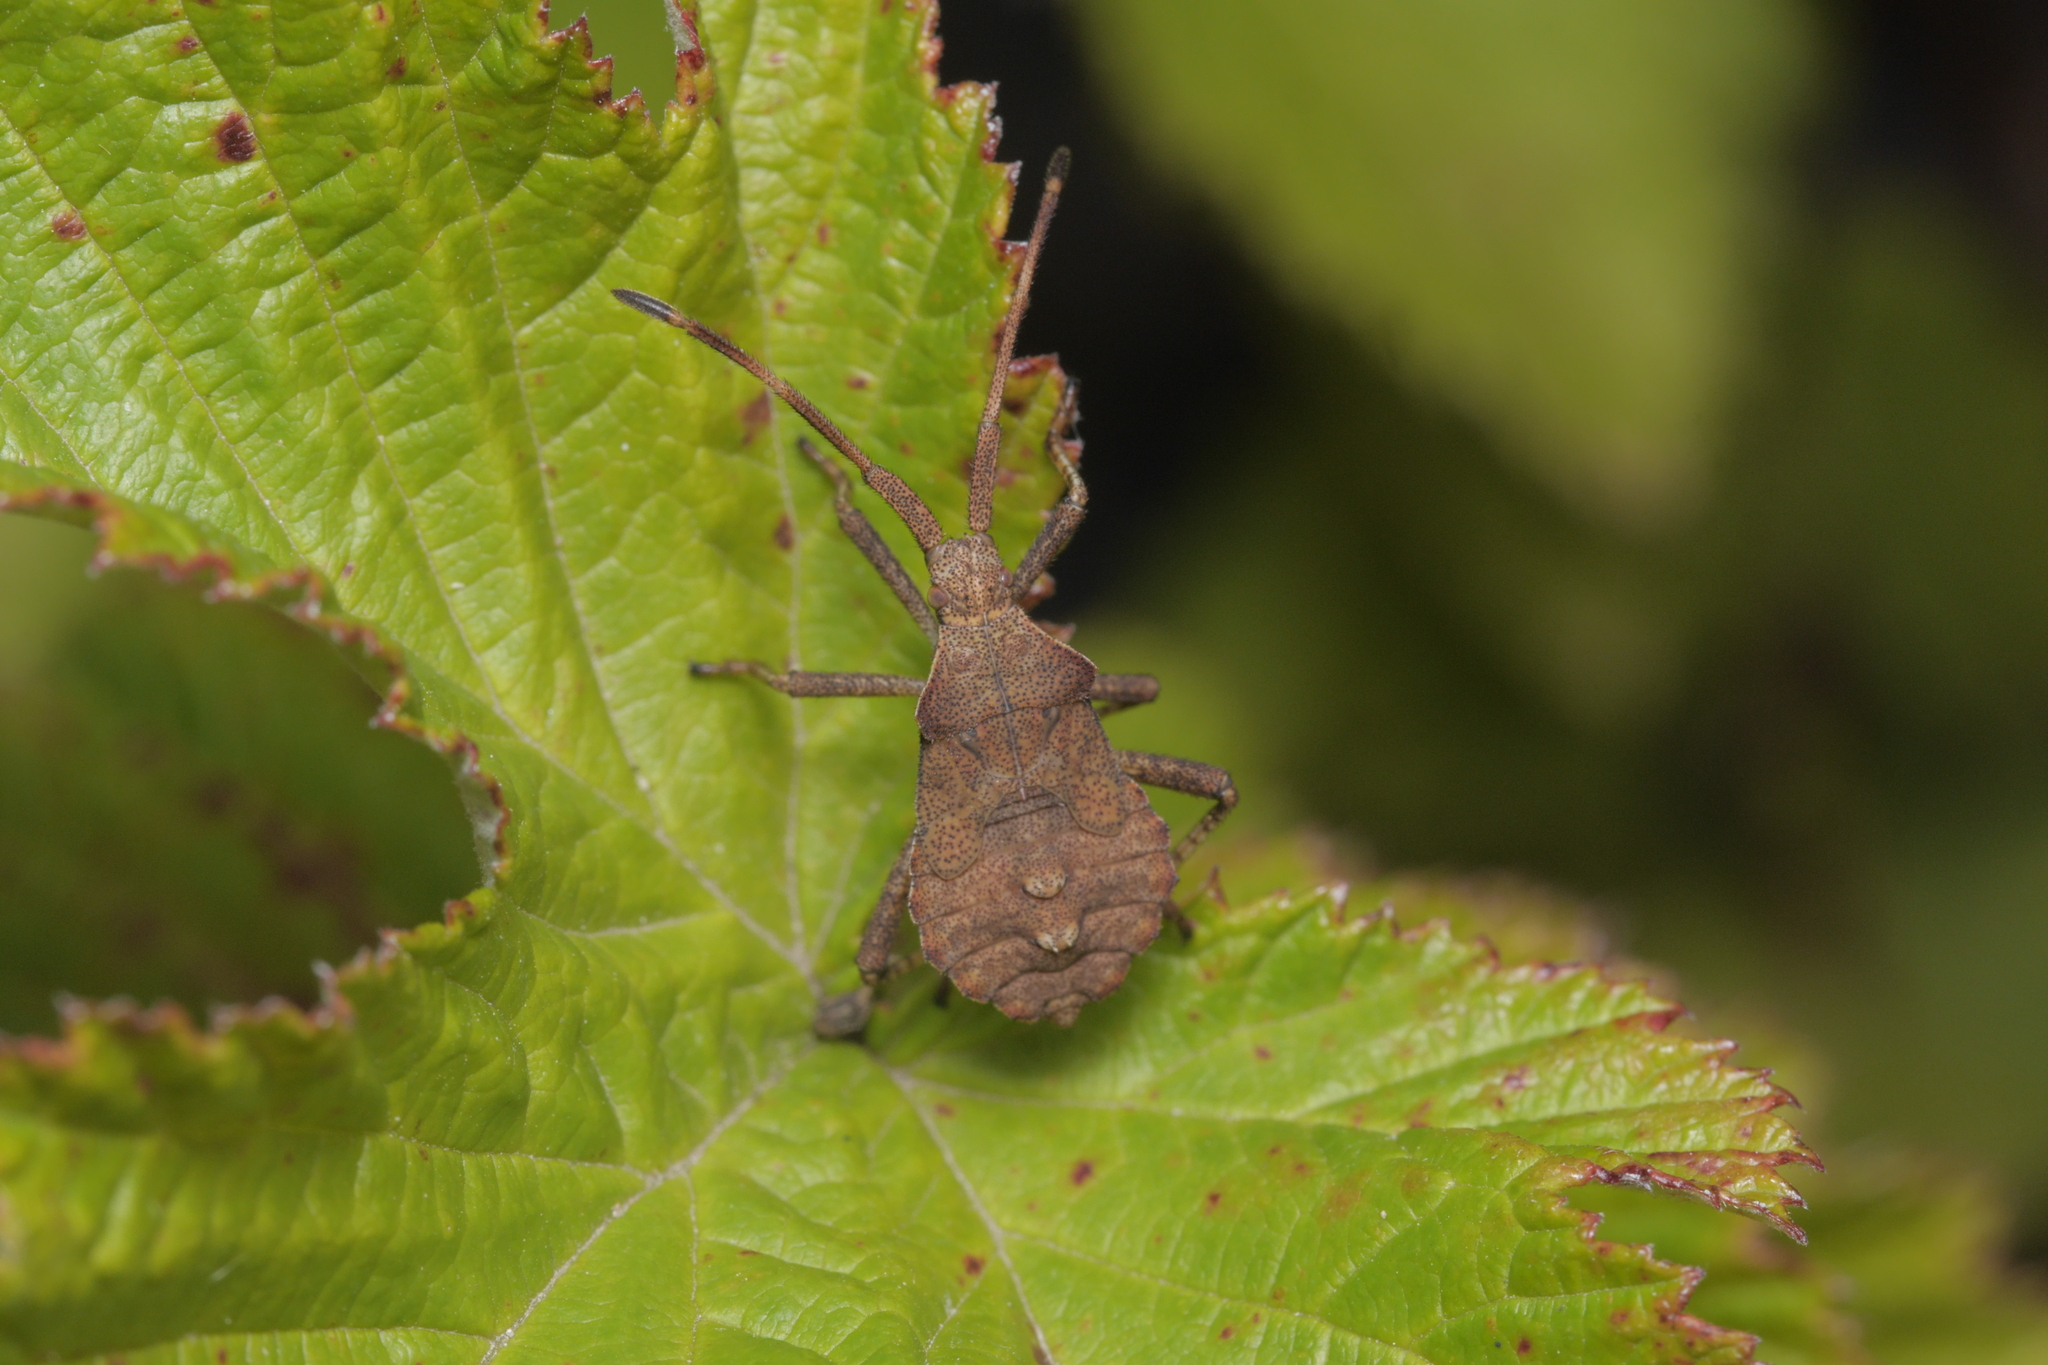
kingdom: Animalia
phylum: Arthropoda
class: Insecta
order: Hemiptera
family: Coreidae
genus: Coreus
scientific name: Coreus marginatus
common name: Dock bug
